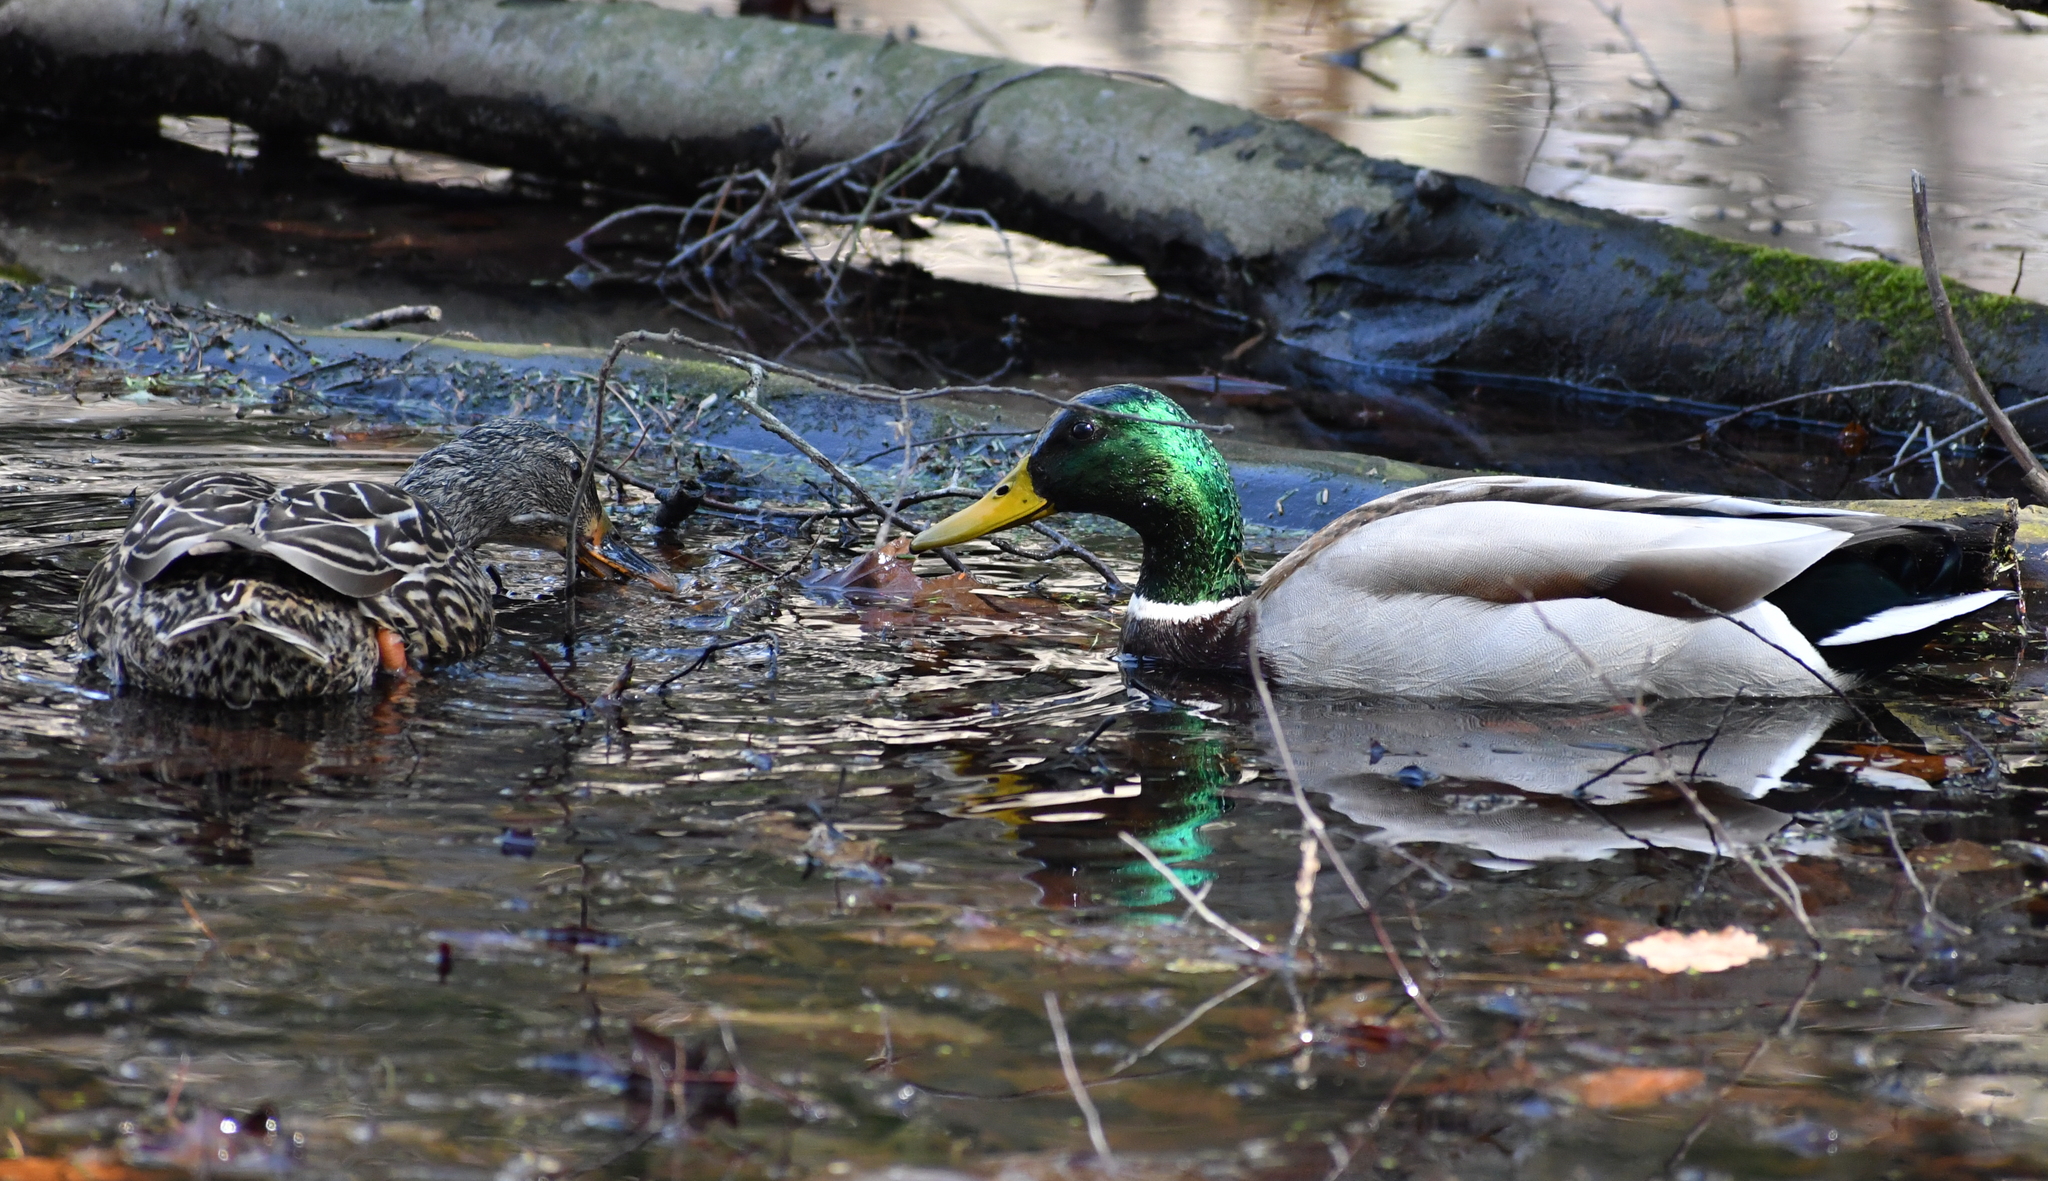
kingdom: Animalia
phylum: Chordata
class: Aves
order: Anseriformes
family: Anatidae
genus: Anas
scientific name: Anas platyrhynchos
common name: Mallard
